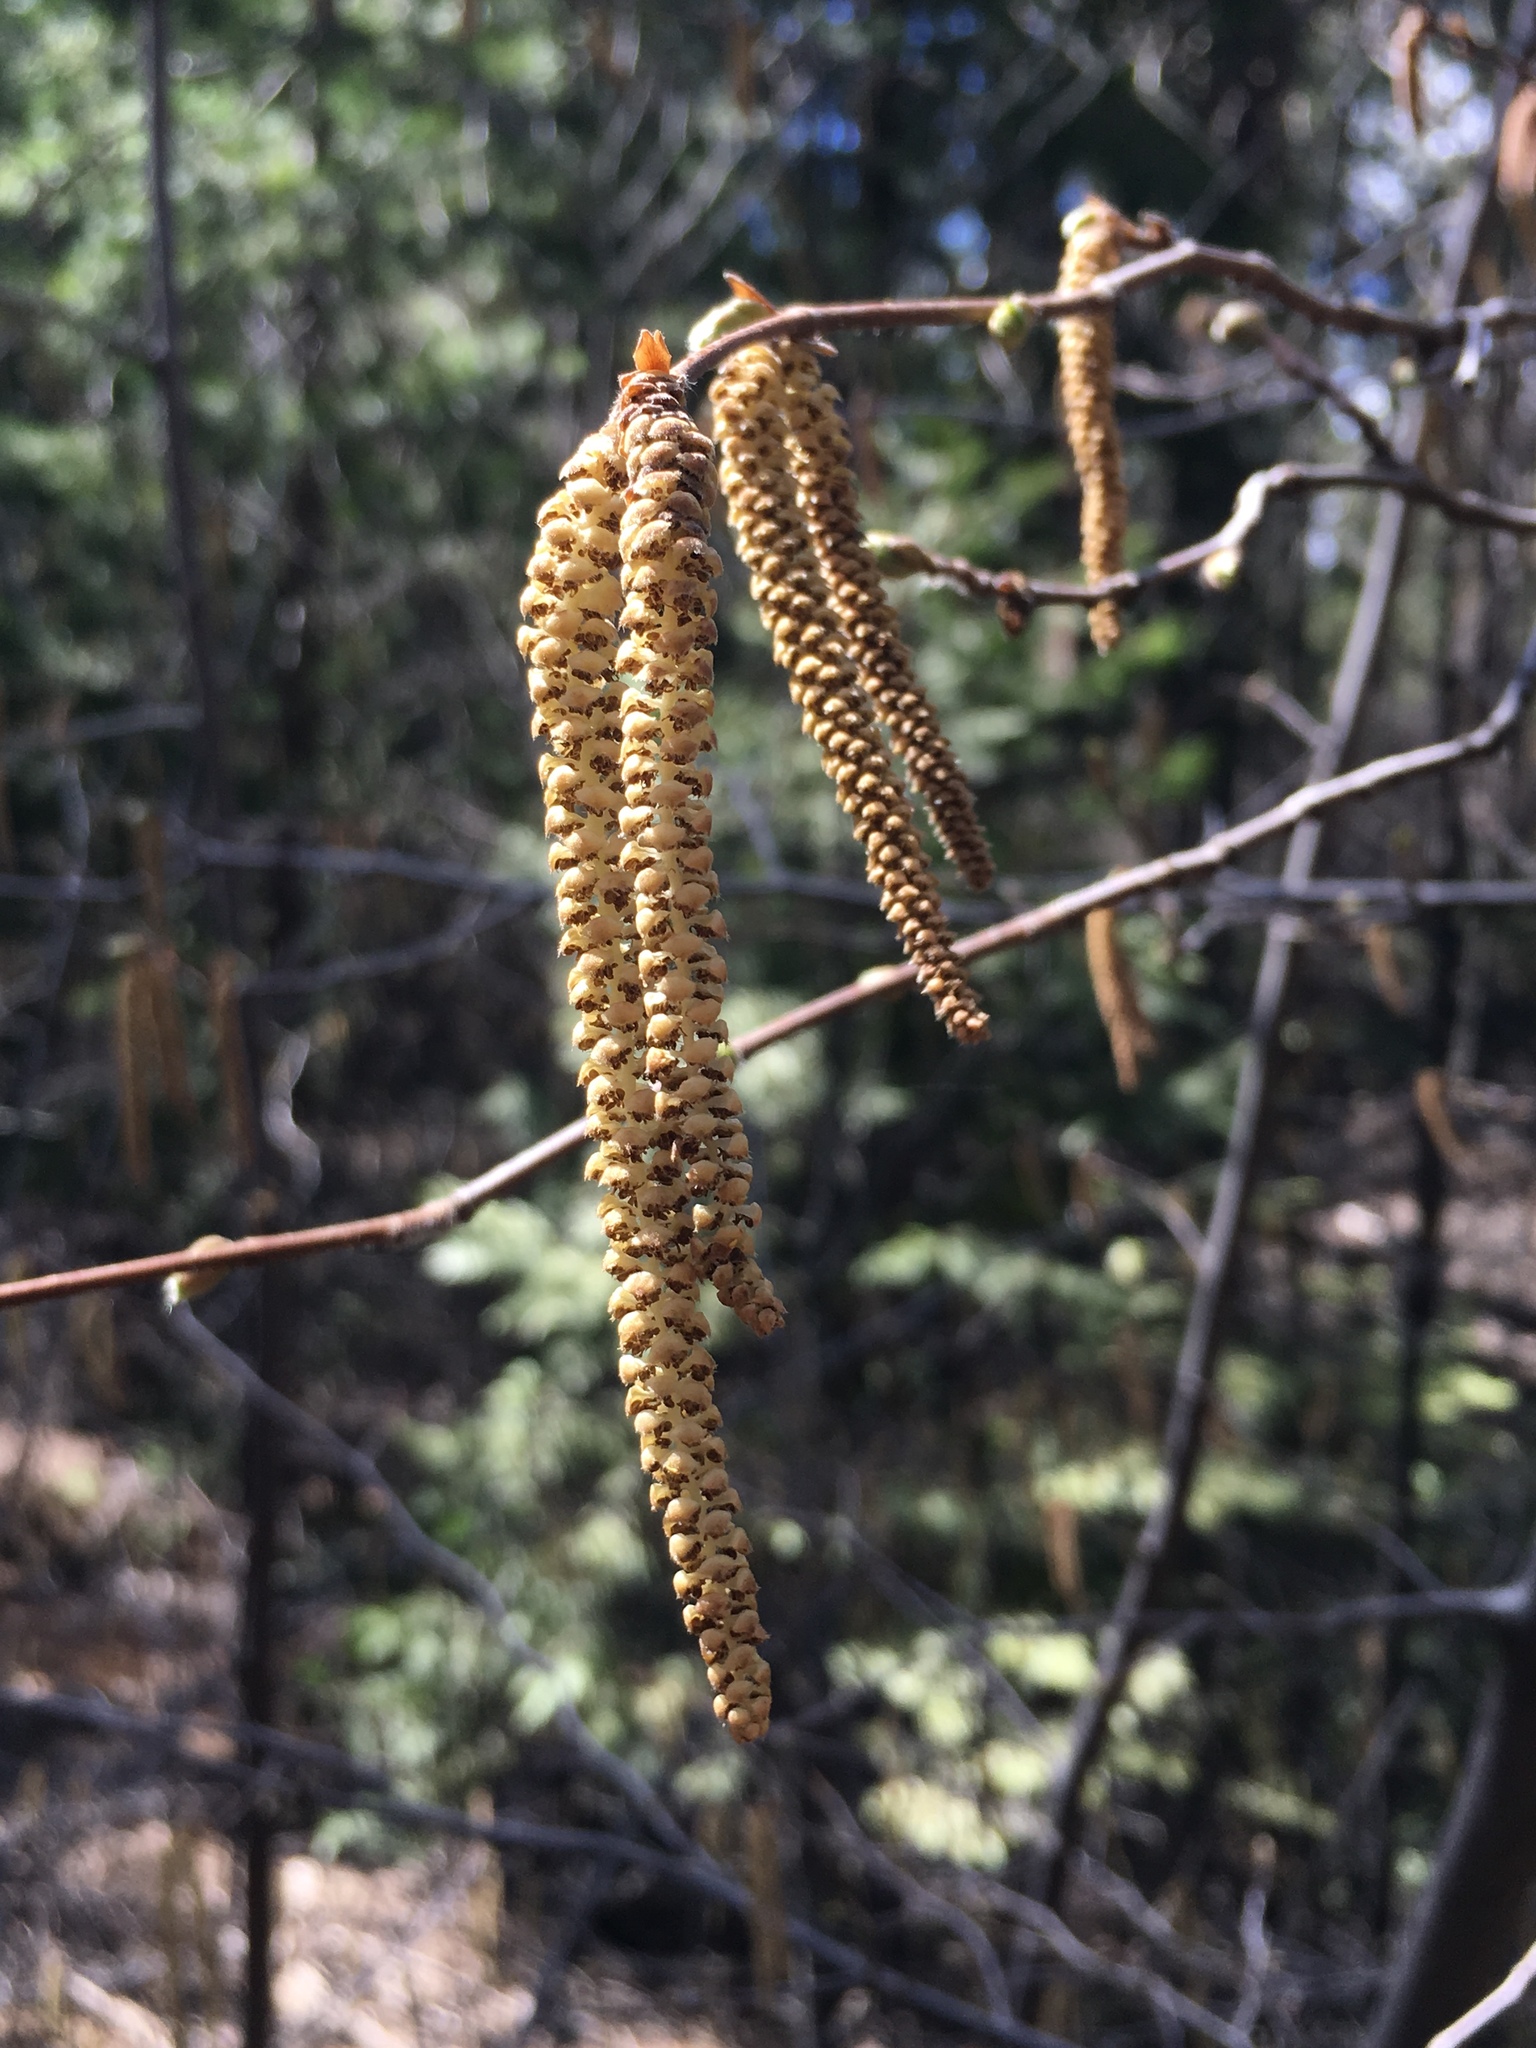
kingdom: Plantae
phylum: Tracheophyta
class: Magnoliopsida
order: Fagales
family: Betulaceae
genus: Corylus
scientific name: Corylus cornuta
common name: Beaked hazel
